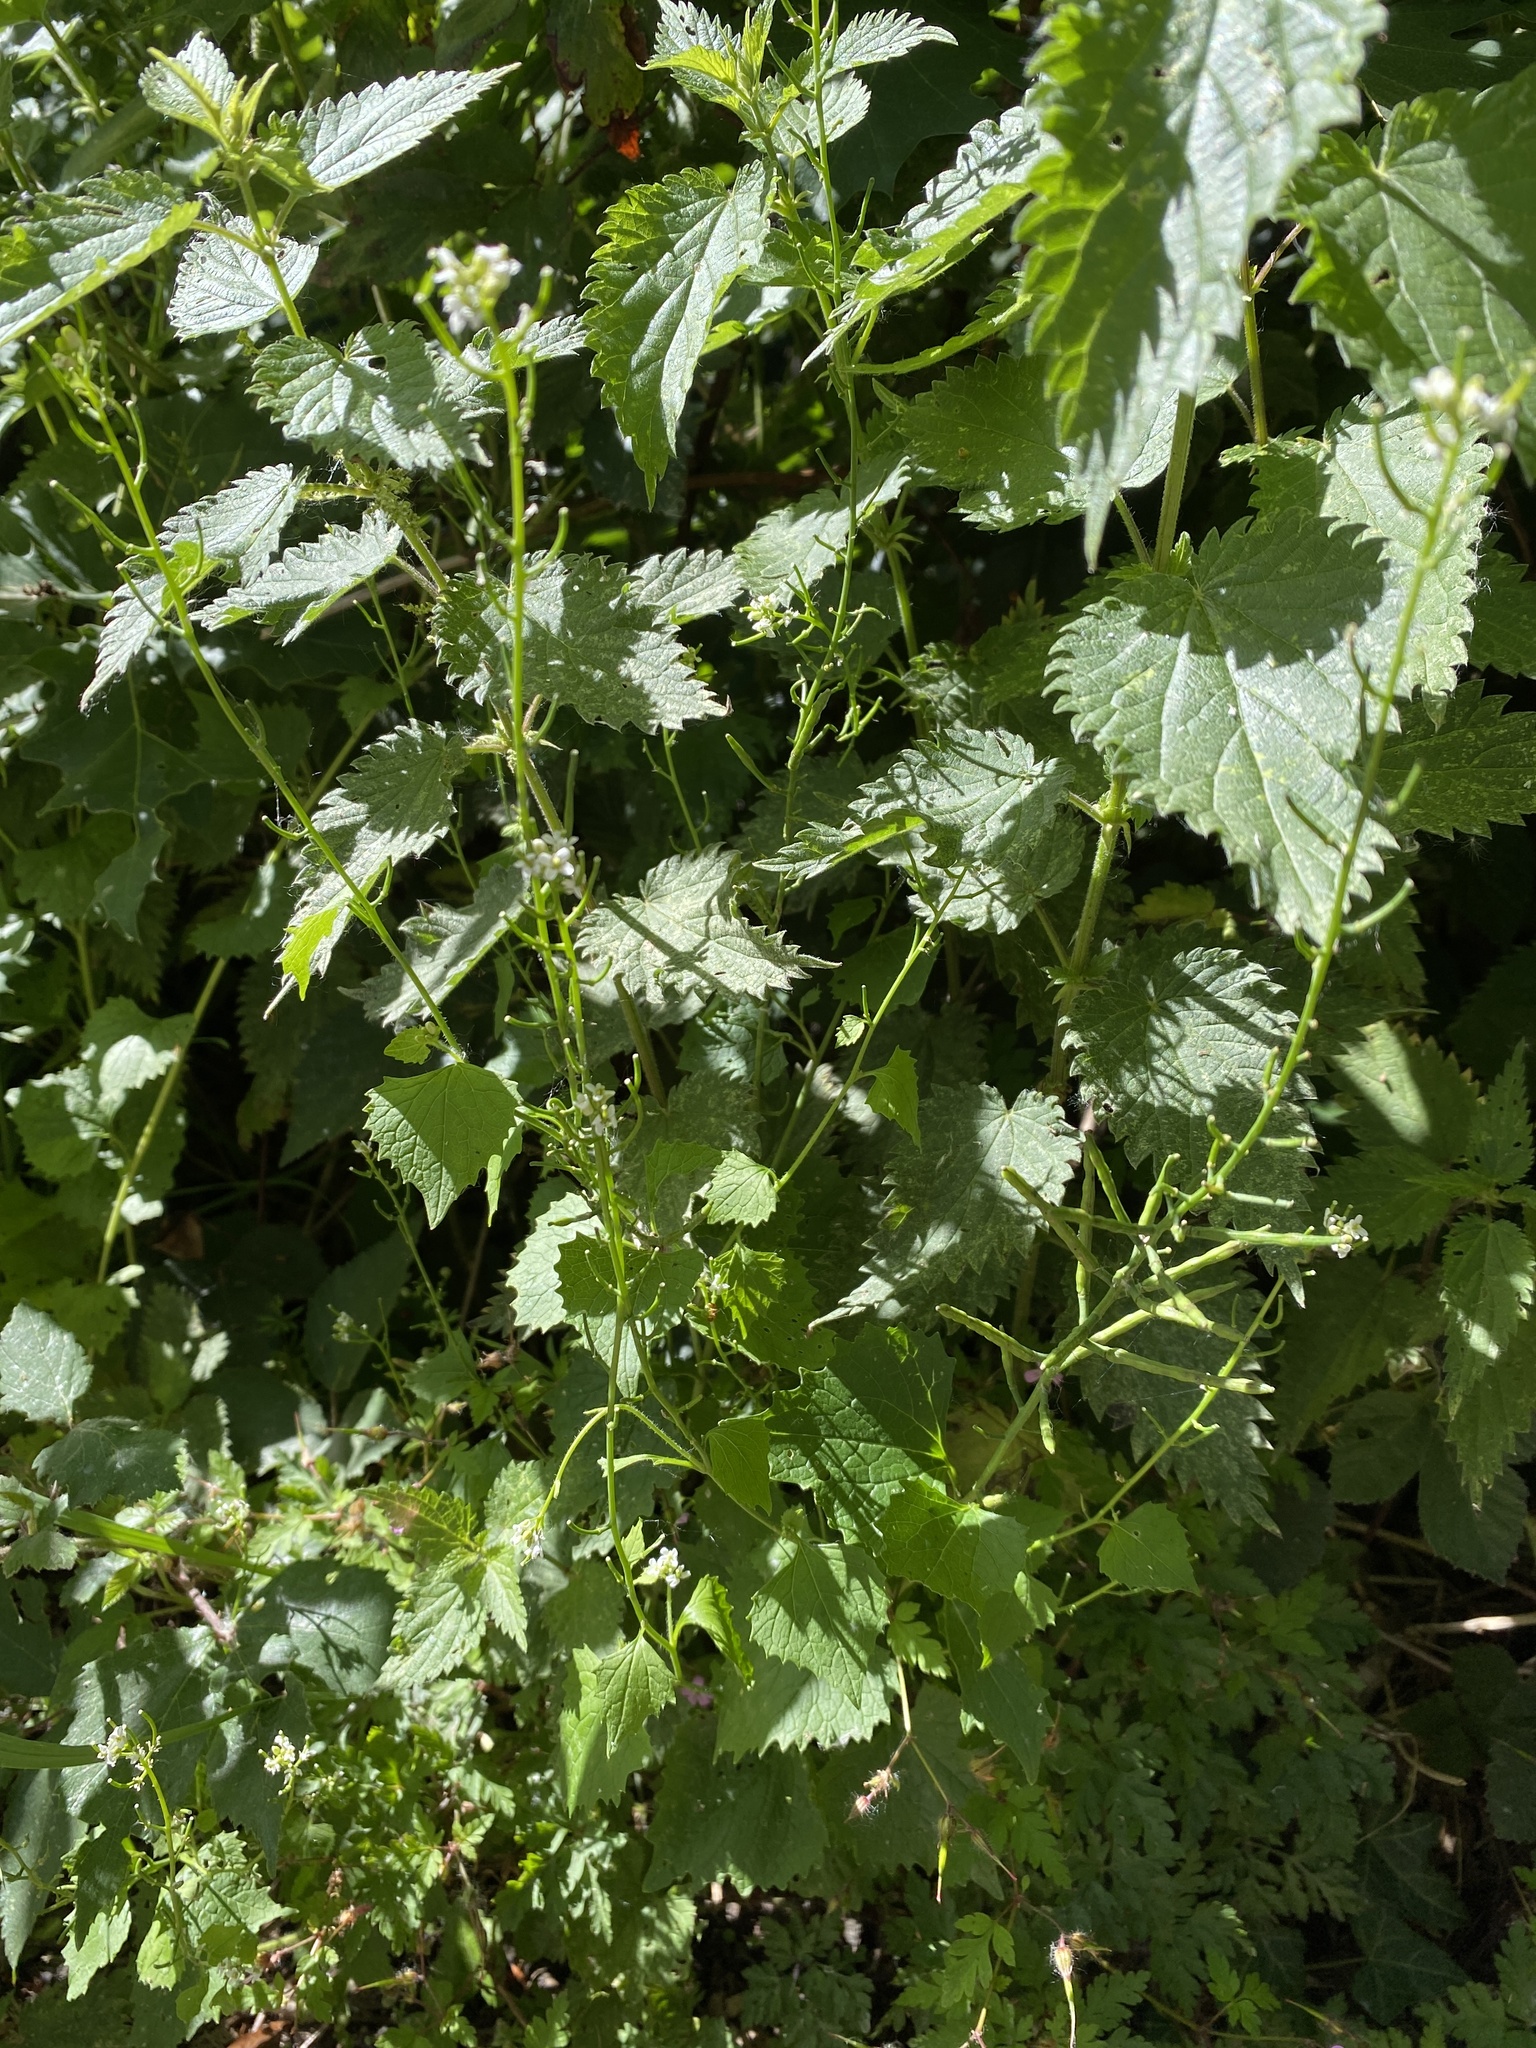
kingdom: Plantae
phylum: Tracheophyta
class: Magnoliopsida
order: Brassicales
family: Brassicaceae
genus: Alliaria
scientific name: Alliaria petiolata
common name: Garlic mustard
